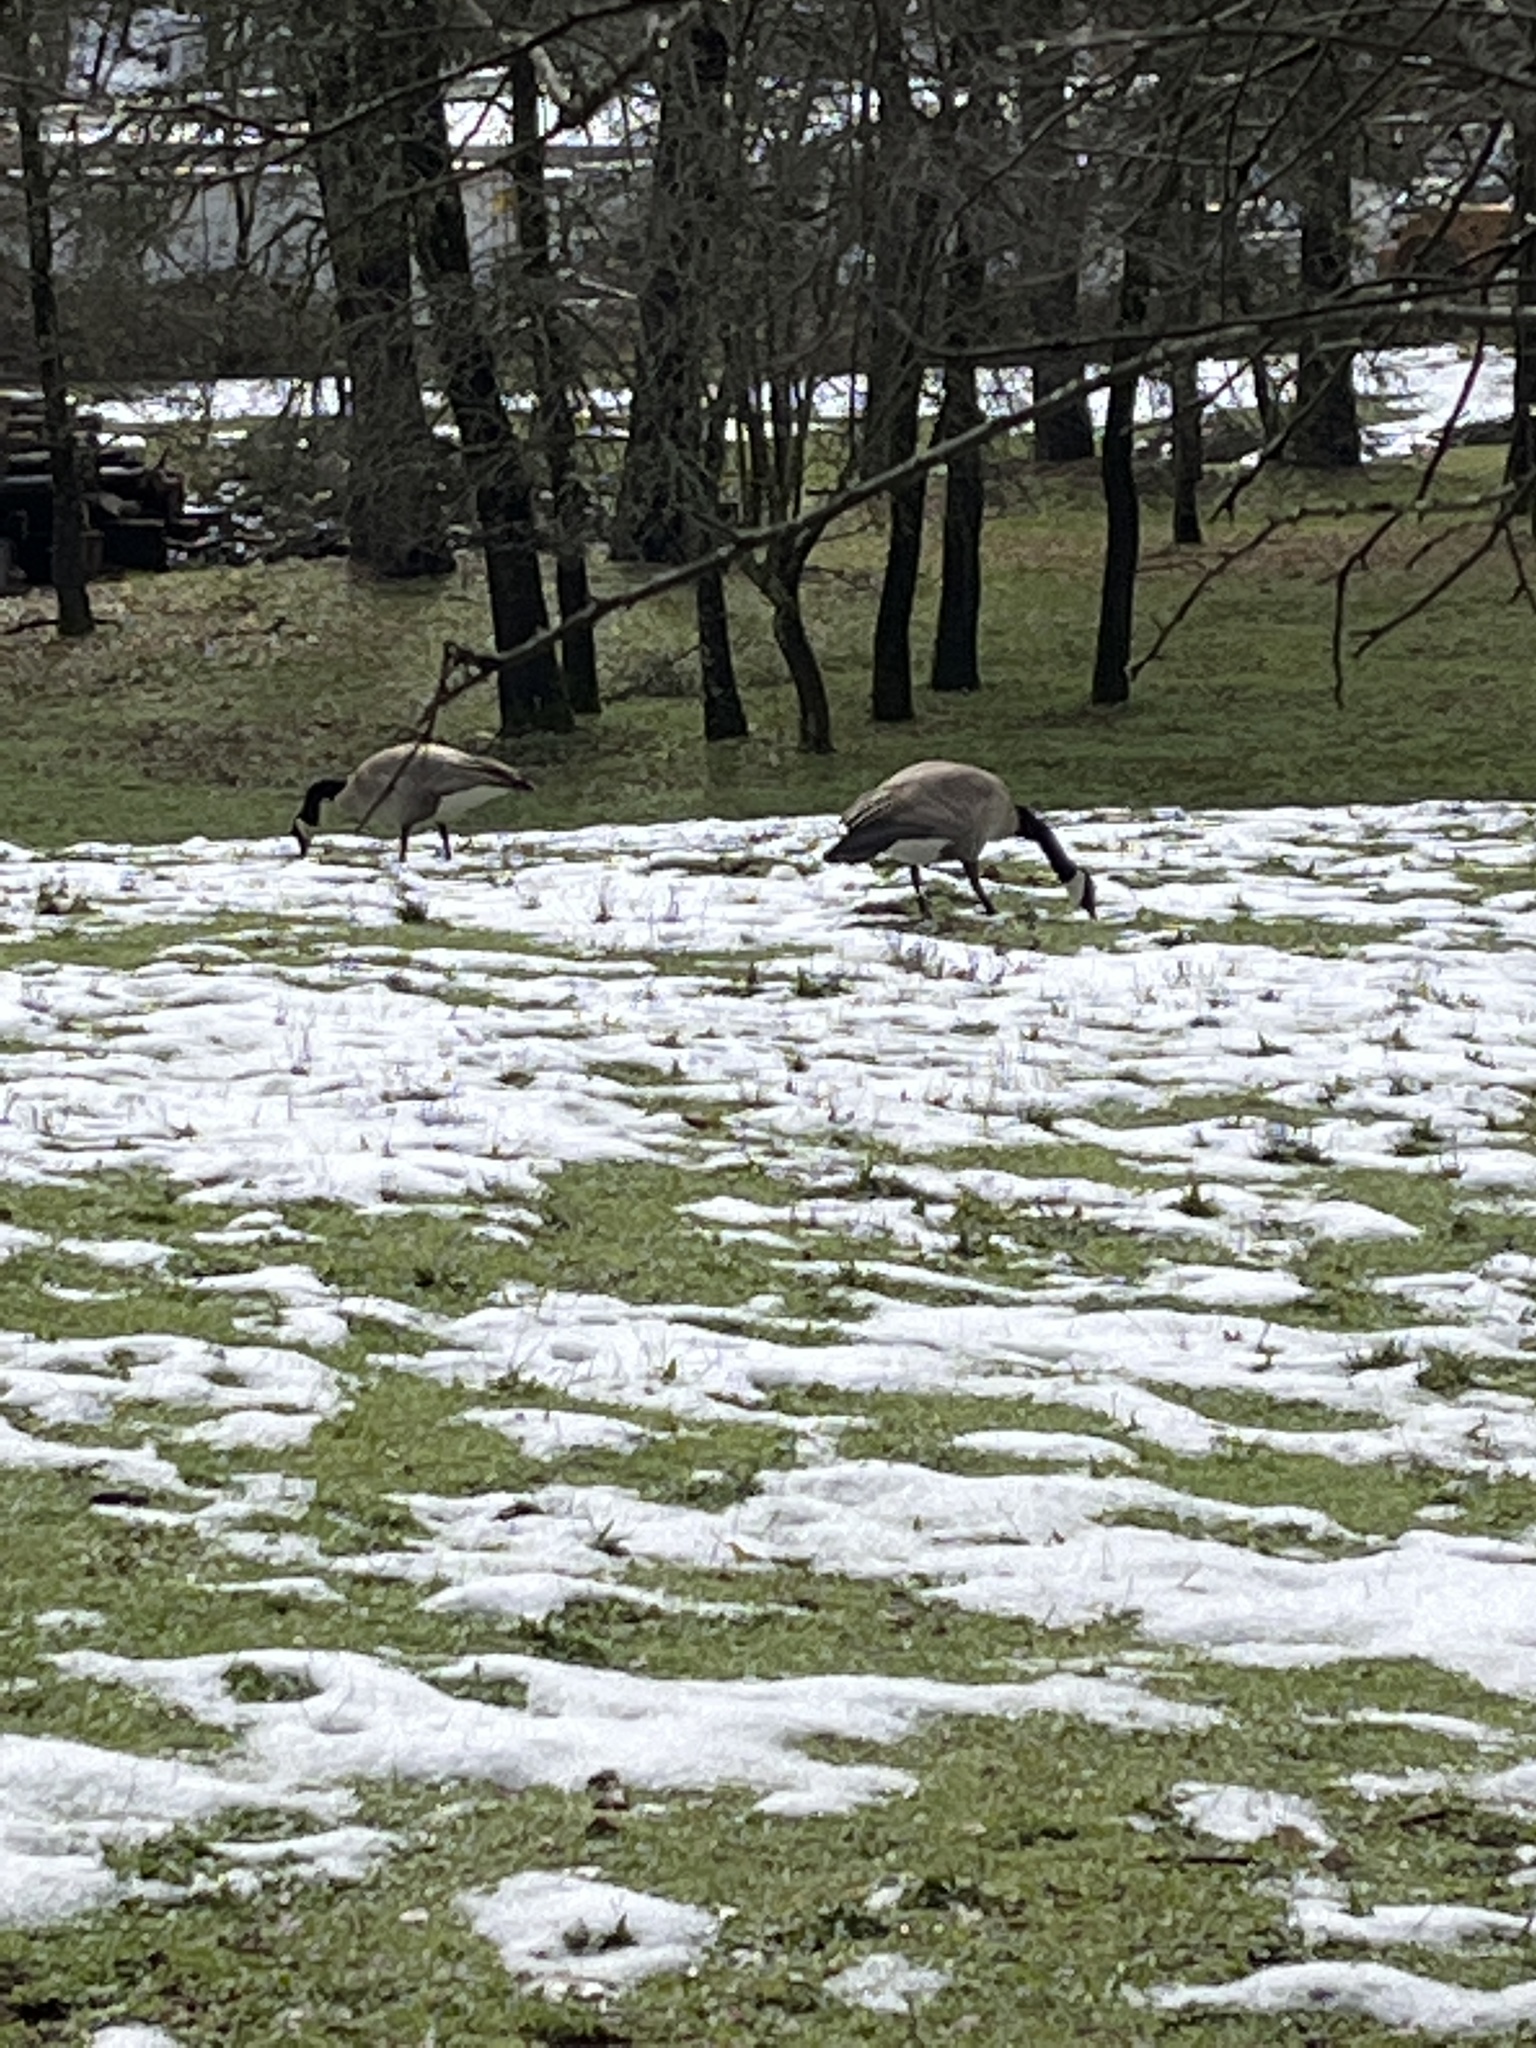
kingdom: Animalia
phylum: Chordata
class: Aves
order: Anseriformes
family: Anatidae
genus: Branta
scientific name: Branta canadensis
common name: Canada goose
